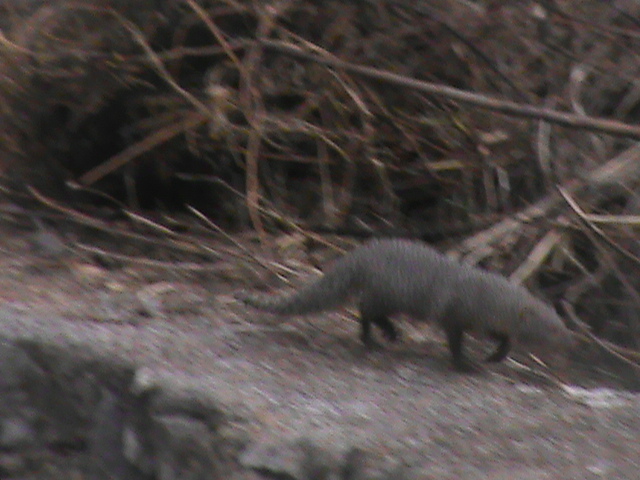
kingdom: Animalia
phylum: Chordata
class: Mammalia
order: Carnivora
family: Herpestidae
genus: Herpestes
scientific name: Herpestes edwardsi
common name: Indian gray mongoose
